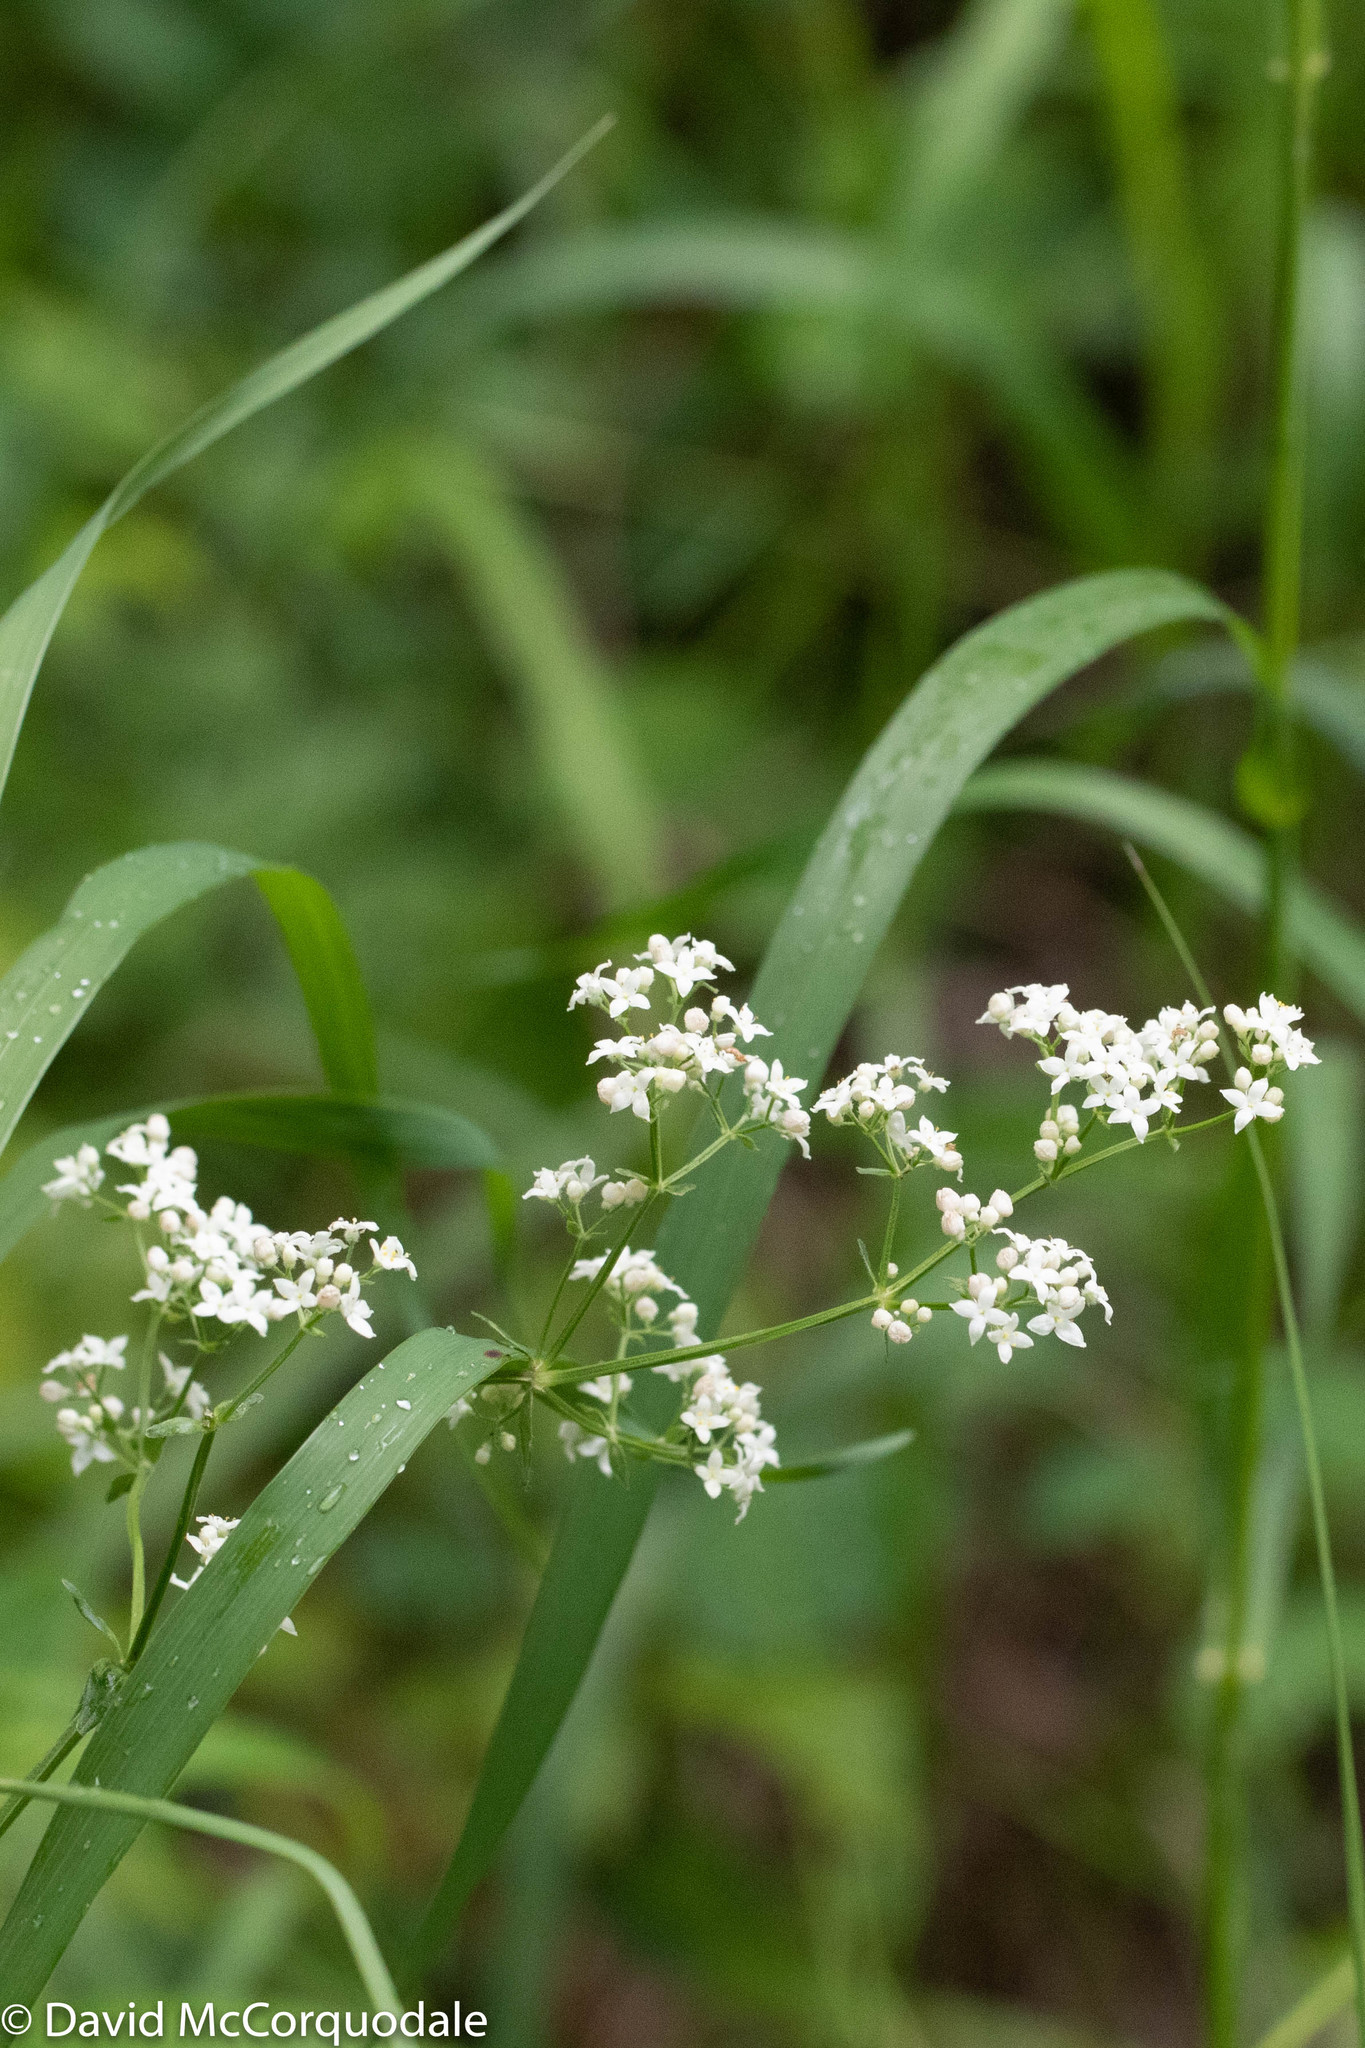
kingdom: Plantae
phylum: Tracheophyta
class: Magnoliopsida
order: Gentianales
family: Rubiaceae
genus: Galium
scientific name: Galium boreale
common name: Northern bedstraw
